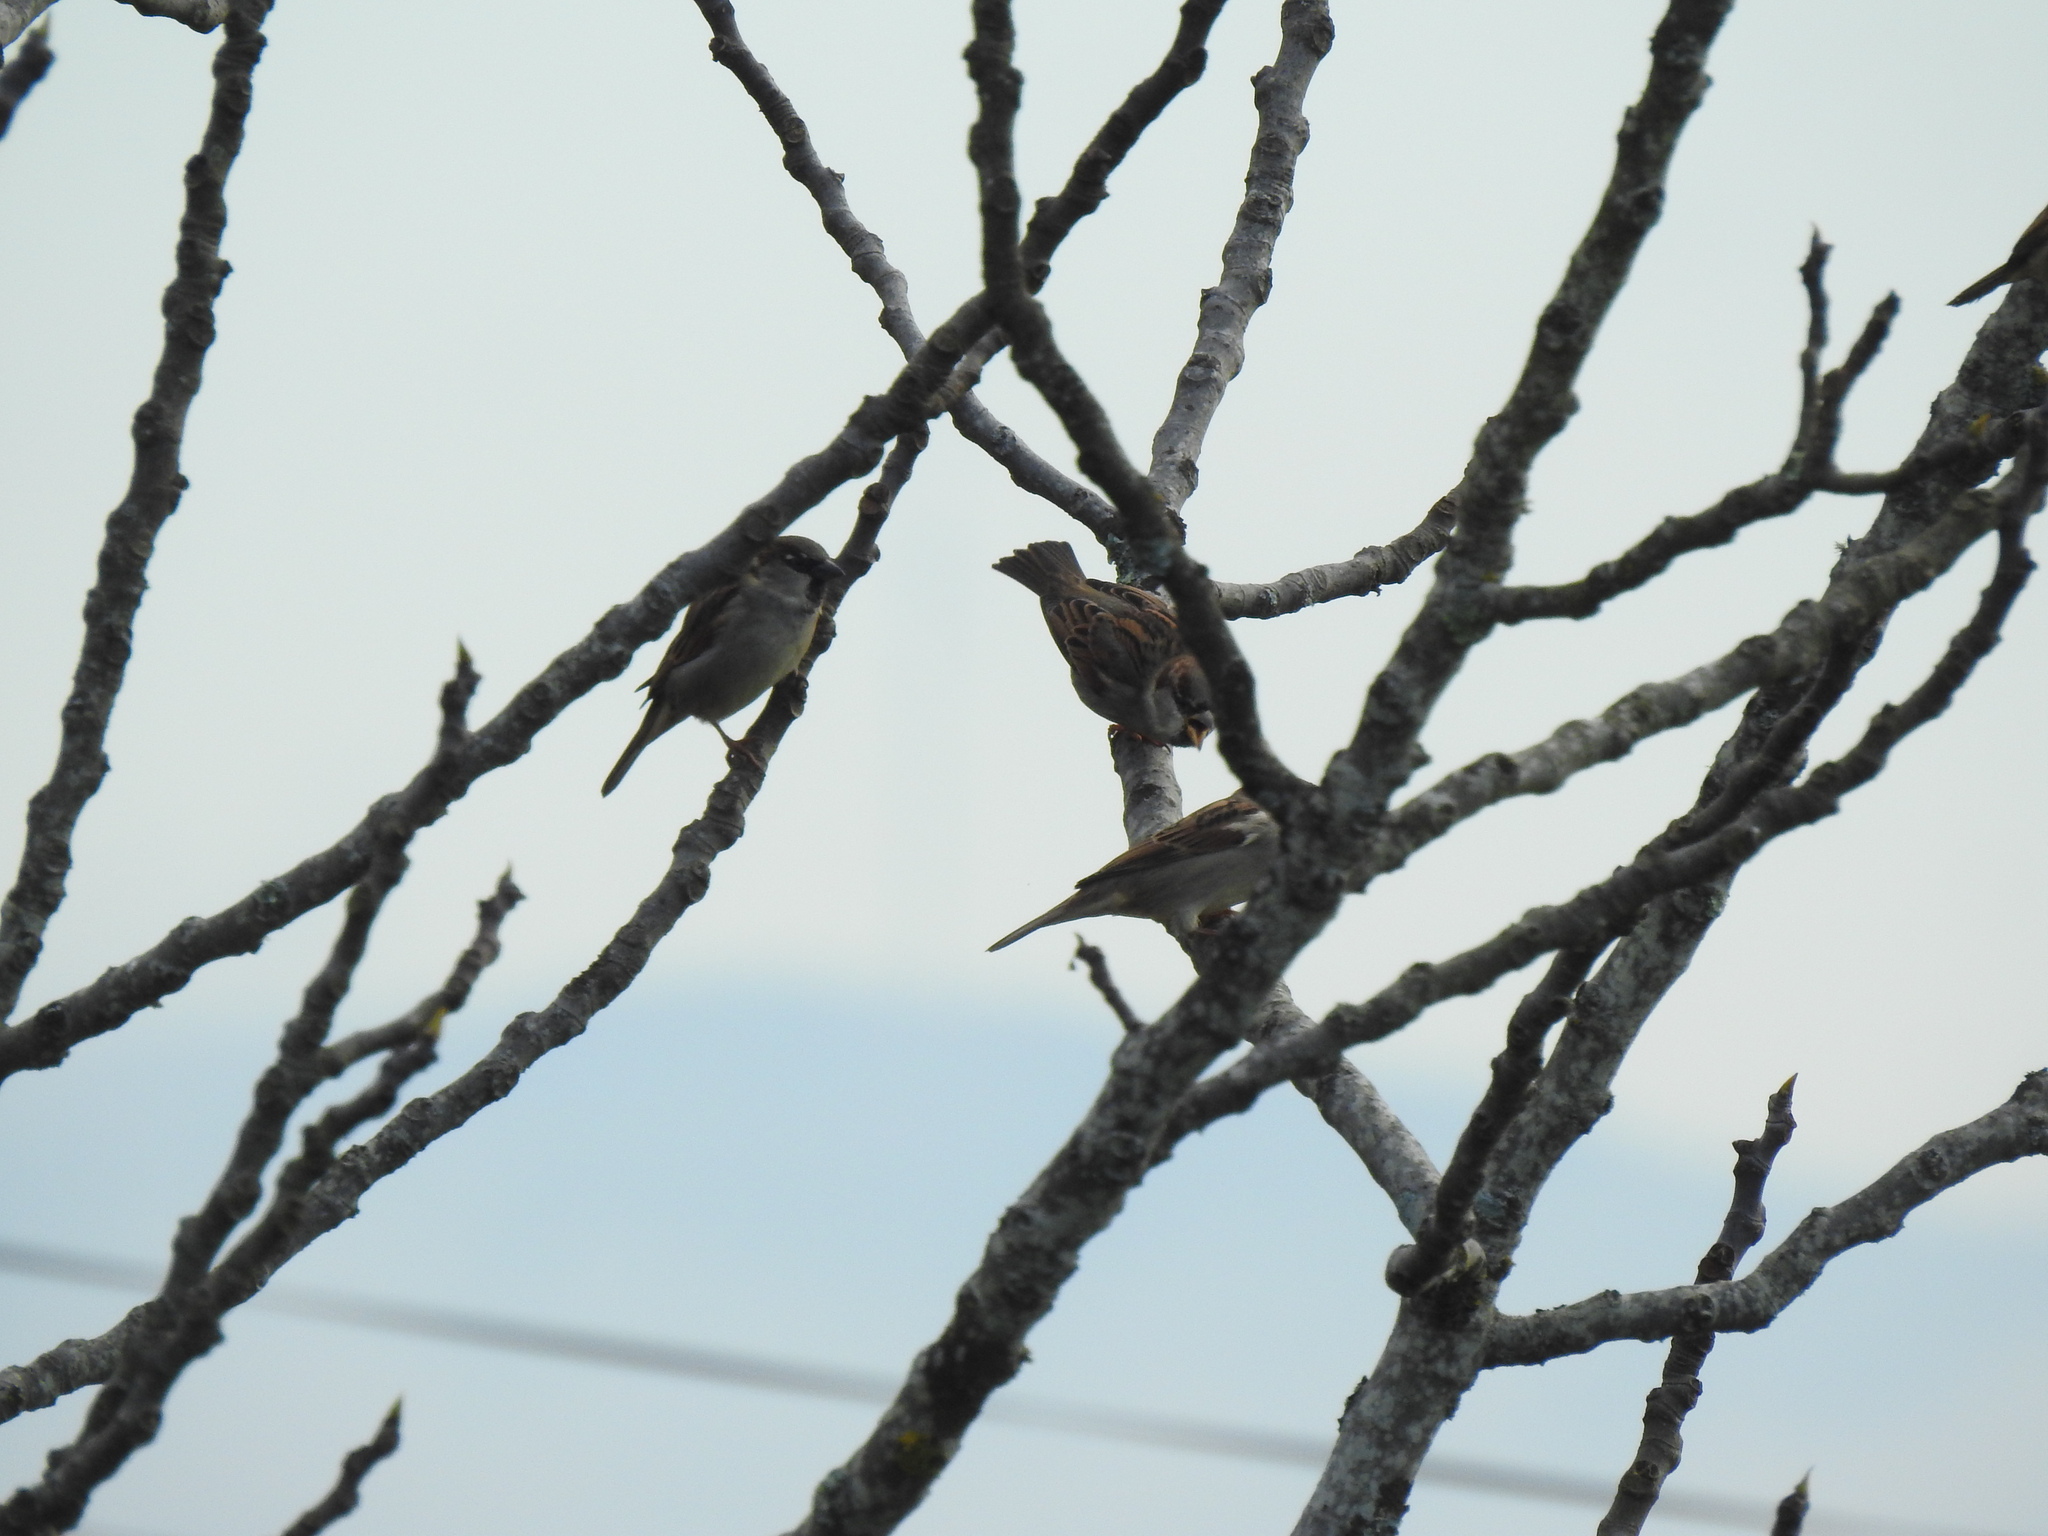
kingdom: Animalia
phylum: Chordata
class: Aves
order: Passeriformes
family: Passeridae
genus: Passer
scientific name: Passer domesticus
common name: House sparrow
